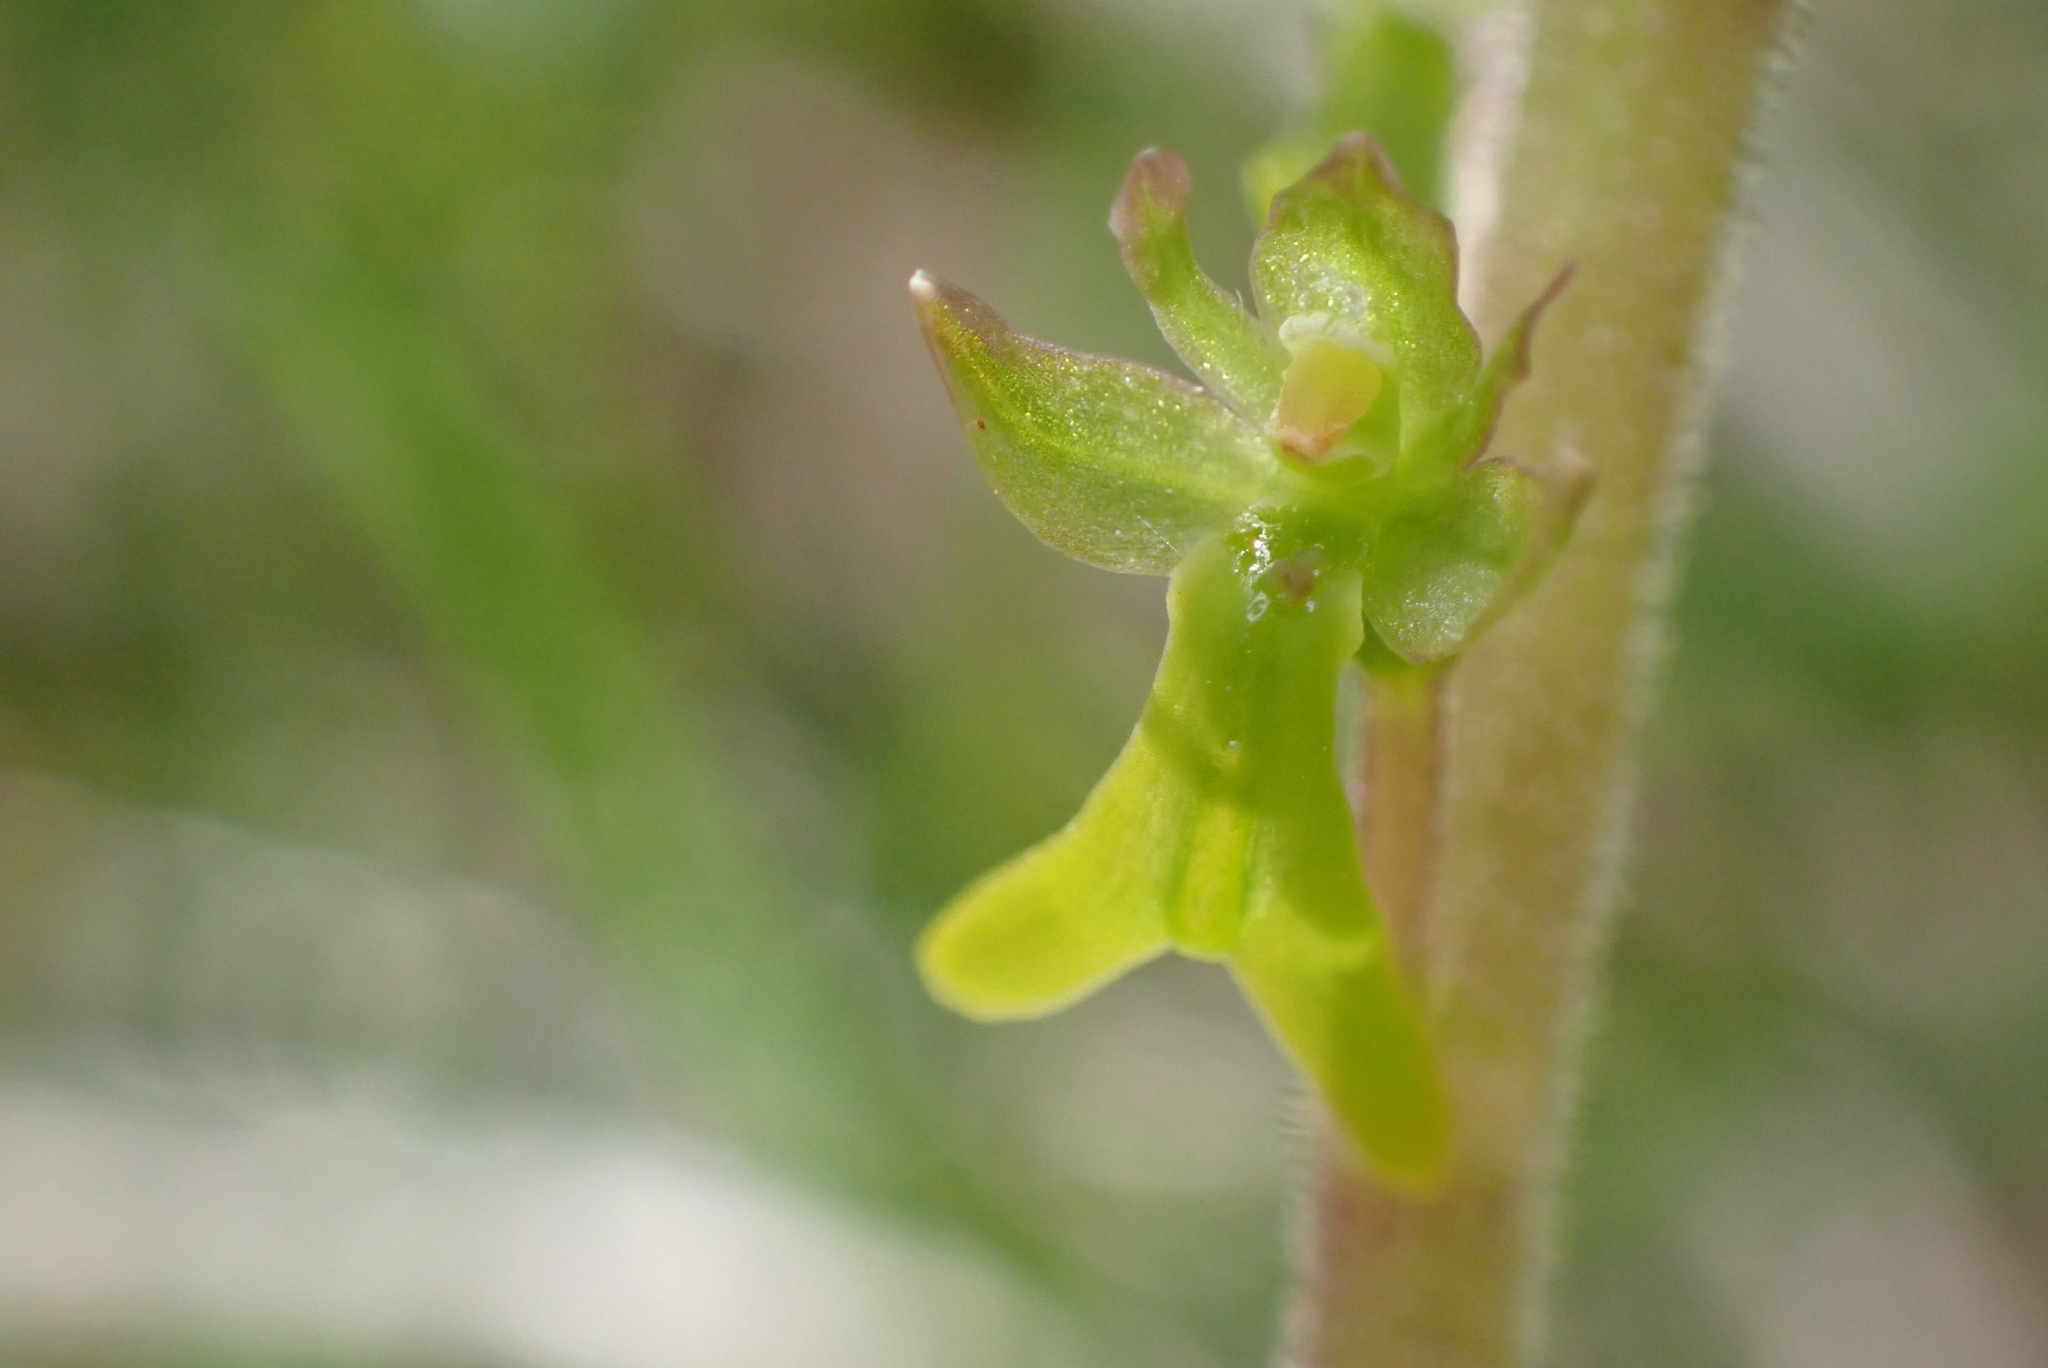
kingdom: Plantae
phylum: Tracheophyta
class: Liliopsida
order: Asparagales
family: Orchidaceae
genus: Neottia
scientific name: Neottia ovata
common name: Common twayblade
